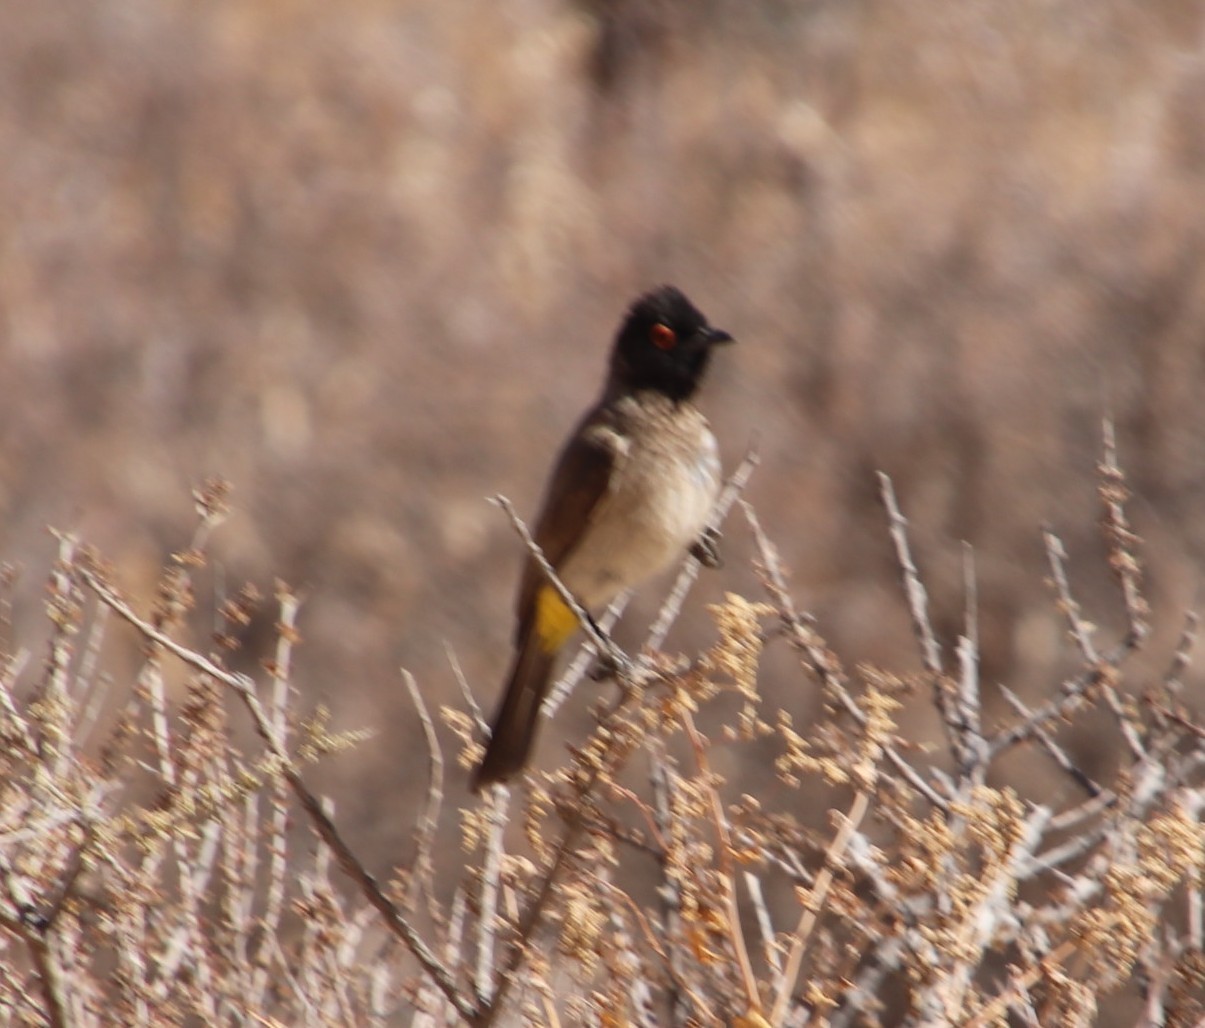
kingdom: Animalia
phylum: Chordata
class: Aves
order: Passeriformes
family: Pycnonotidae
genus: Pycnonotus
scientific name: Pycnonotus nigricans
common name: African red-eyed bulbul
